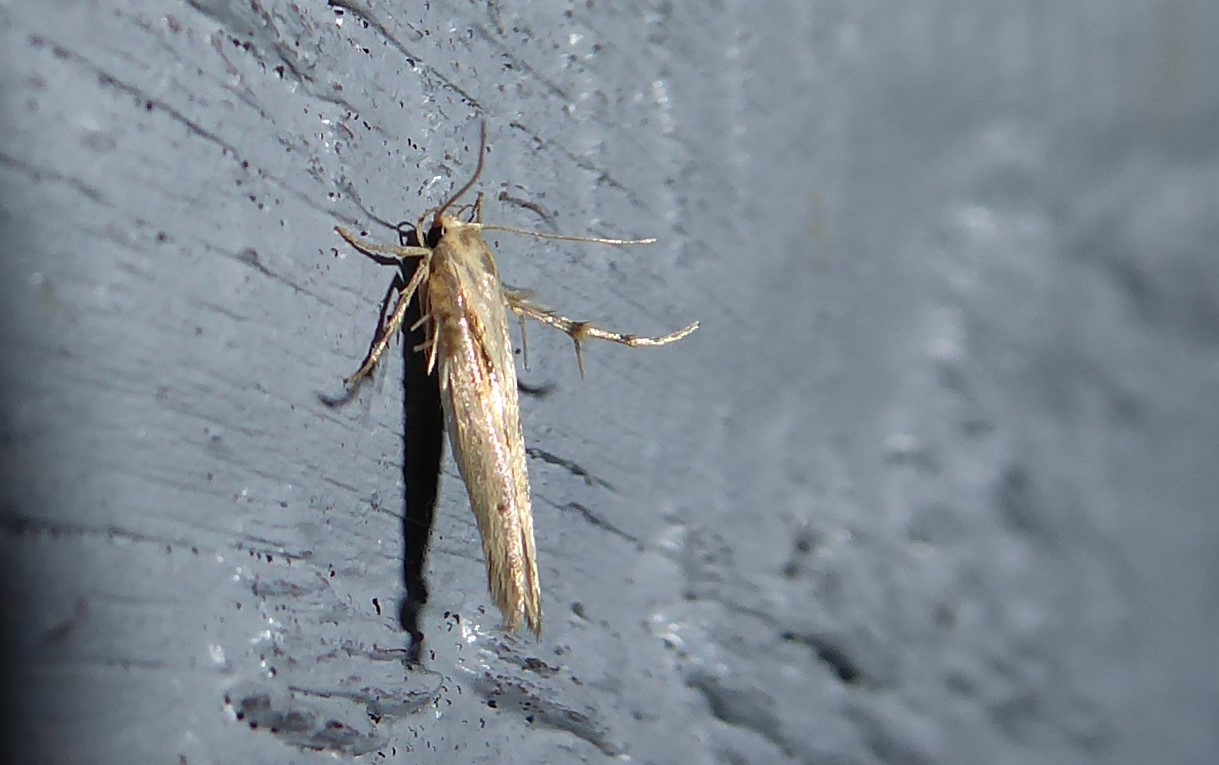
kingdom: Animalia
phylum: Arthropoda
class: Insecta
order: Lepidoptera
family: Stathmopodidae
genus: Stathmopoda
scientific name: Stathmopoda plumbiflua
